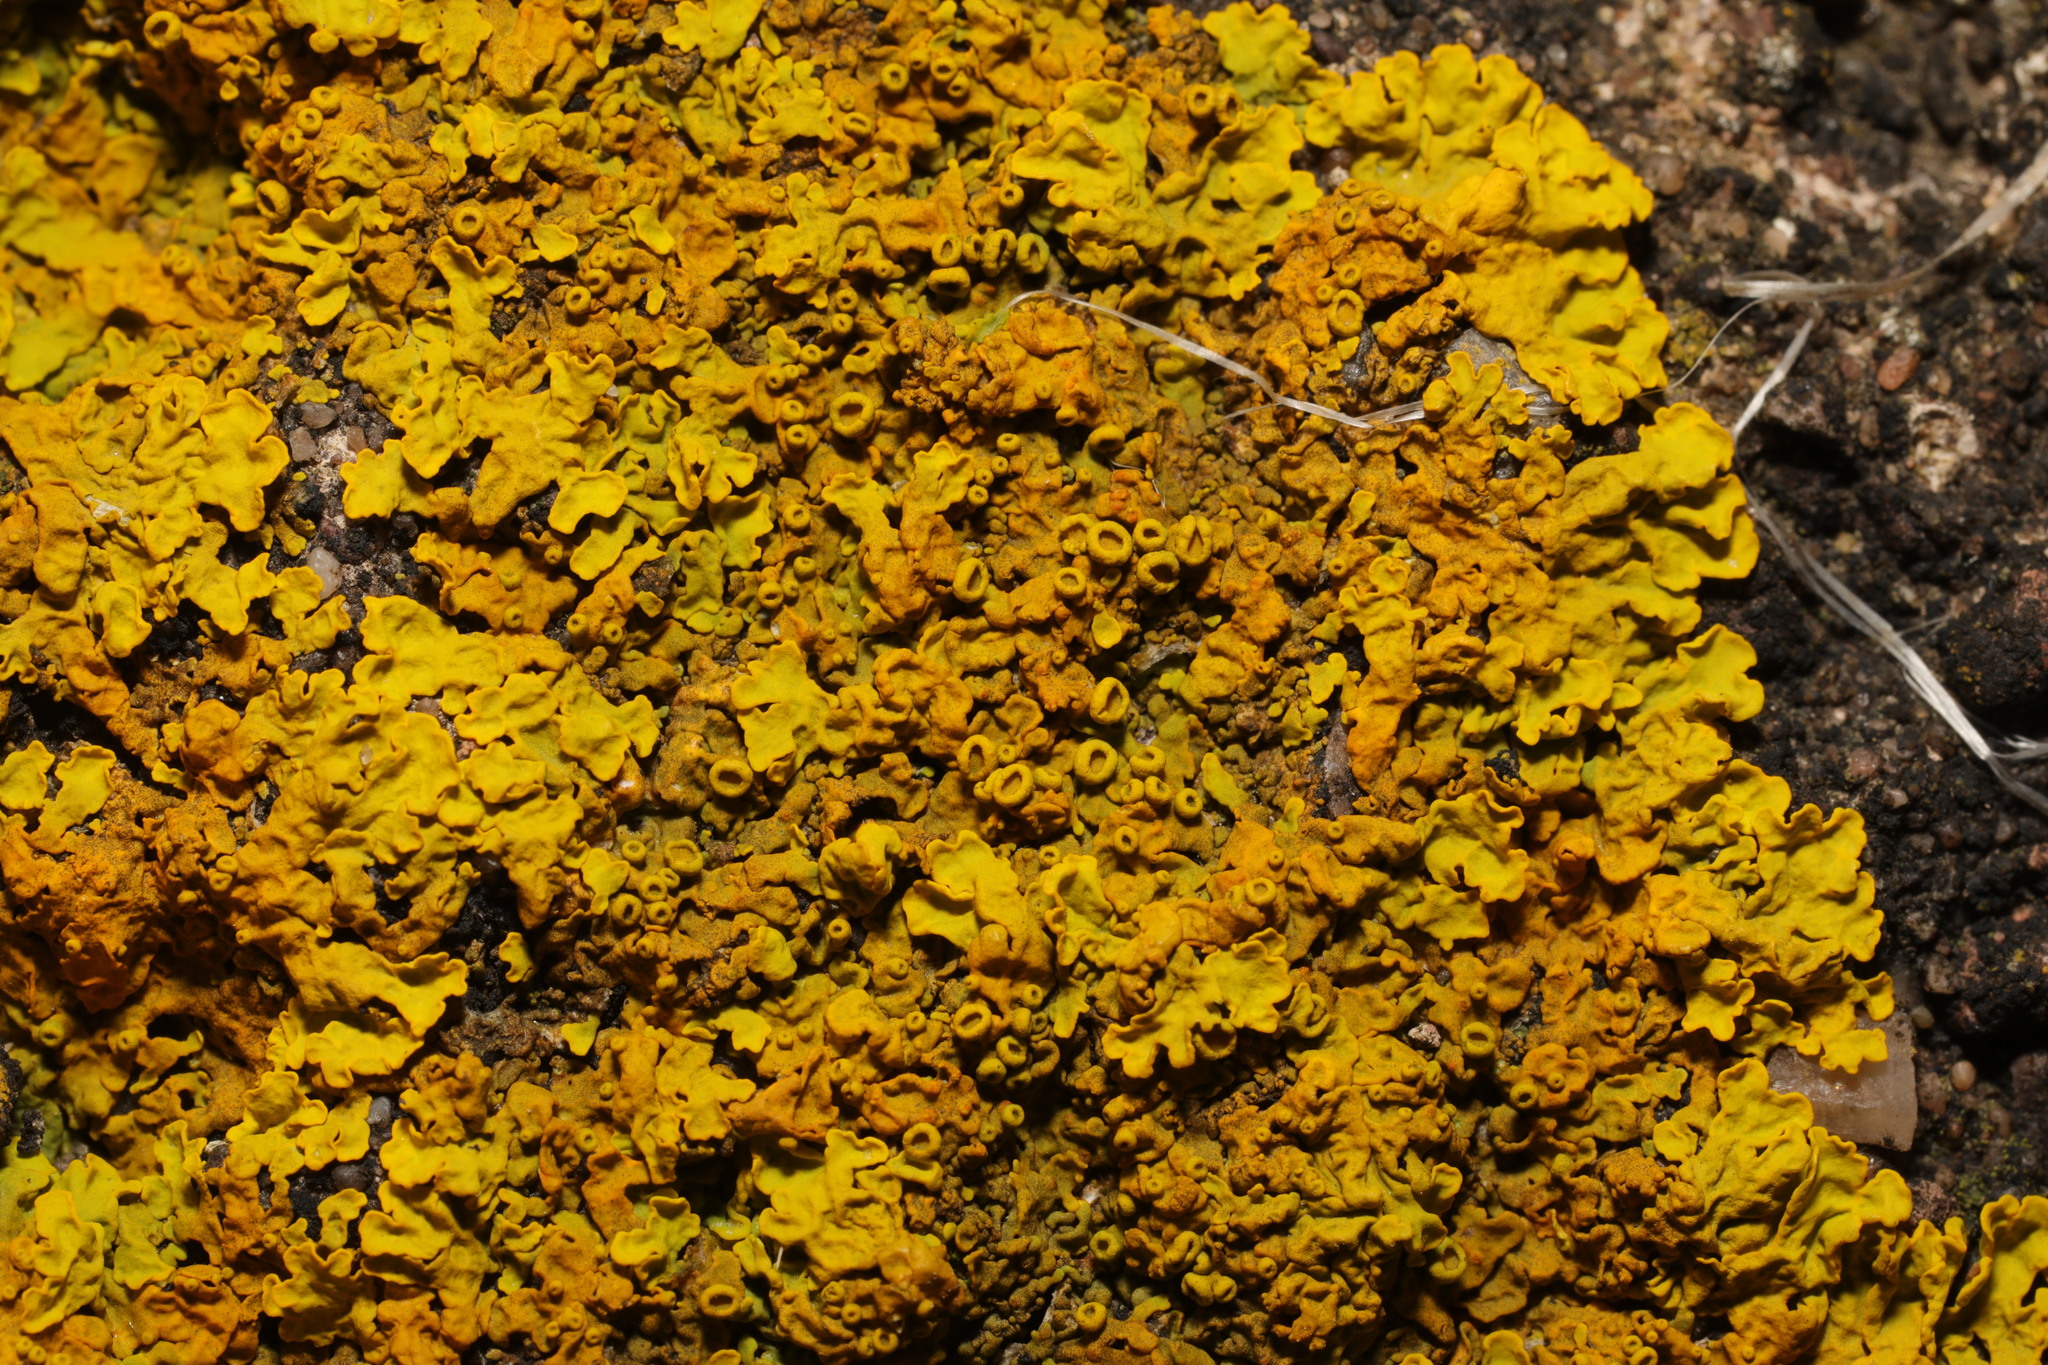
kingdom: Fungi
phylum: Ascomycota
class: Lecanoromycetes
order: Teloschistales
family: Teloschistaceae
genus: Xanthoria
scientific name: Xanthoria parietina
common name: Common orange lichen
